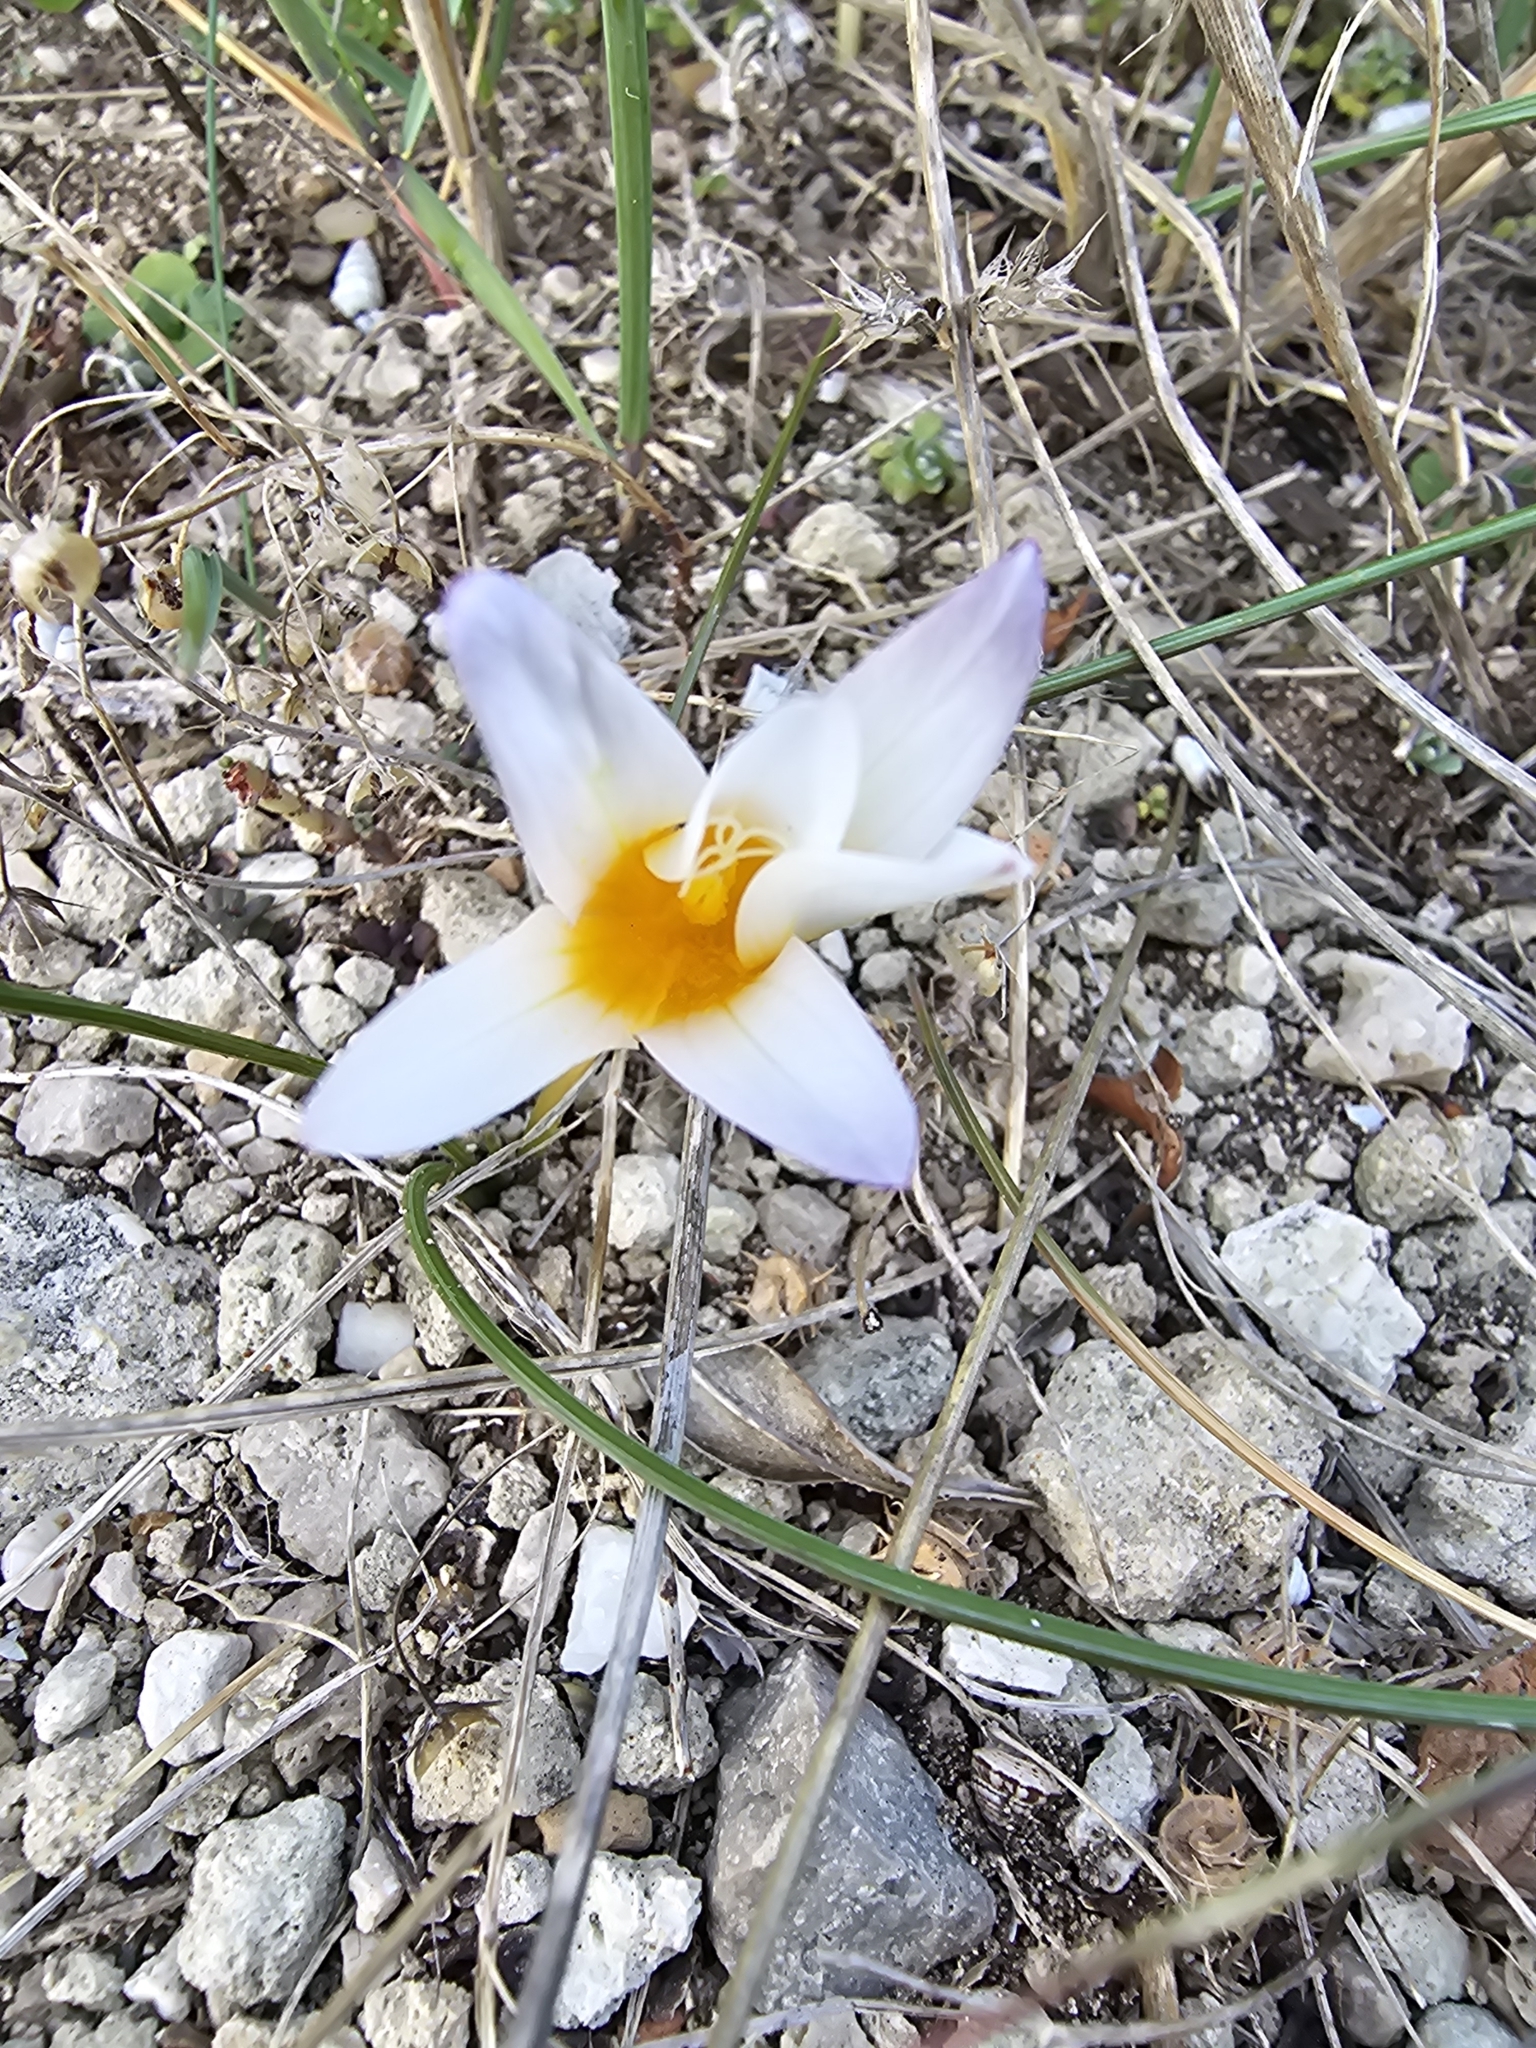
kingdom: Plantae
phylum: Tracheophyta
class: Liliopsida
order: Asparagales
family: Iridaceae
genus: Romulea
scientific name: Romulea bulbocodium
